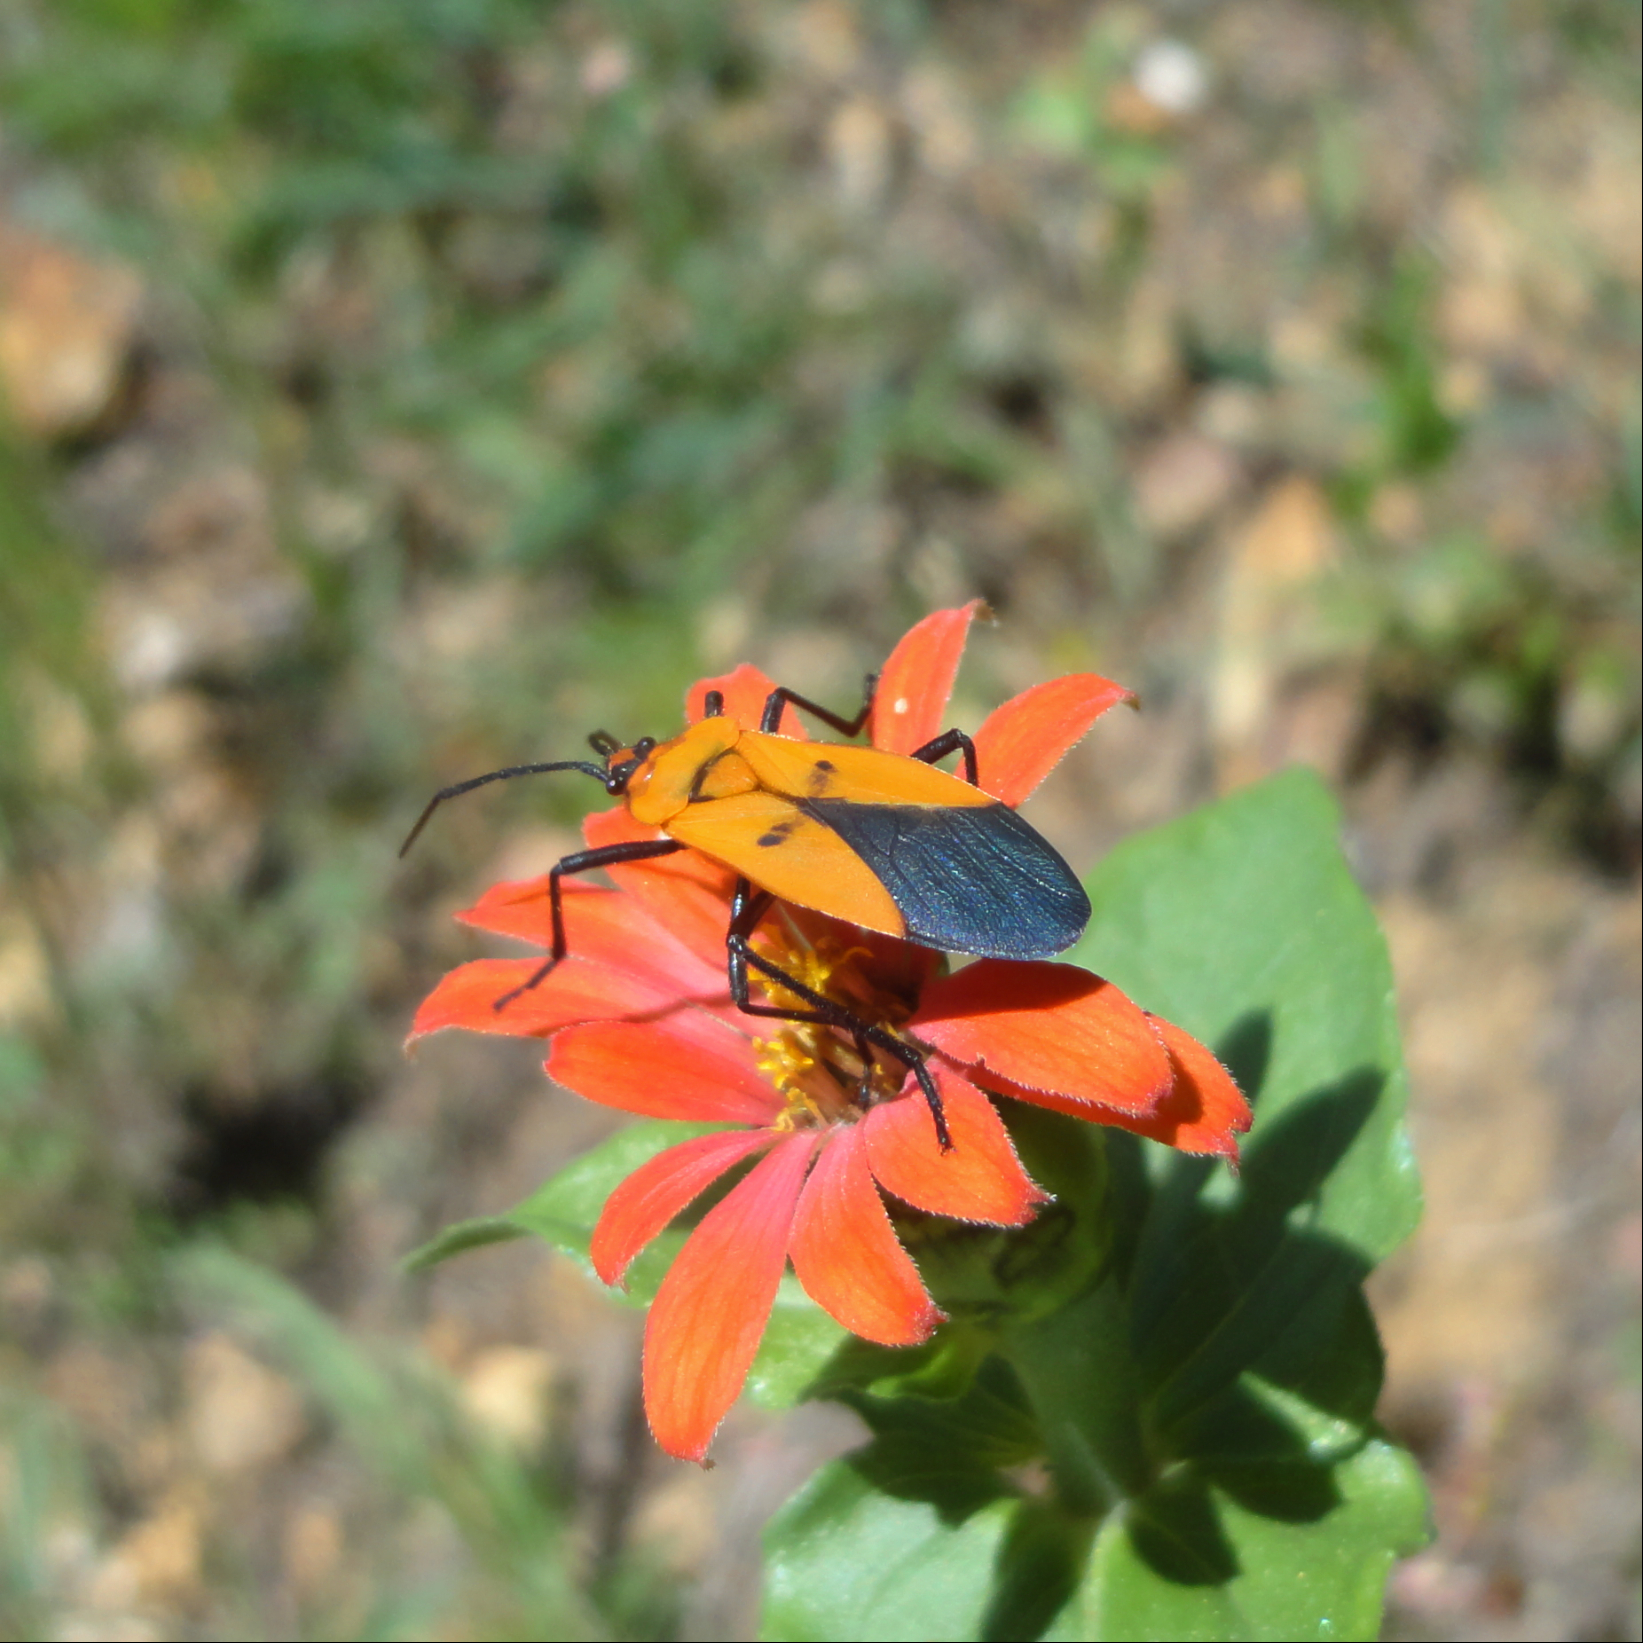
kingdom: Animalia
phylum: Arthropoda
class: Insecta
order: Hemiptera
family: Lygaeidae
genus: Oncopeltus
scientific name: Oncopeltus varicolor
